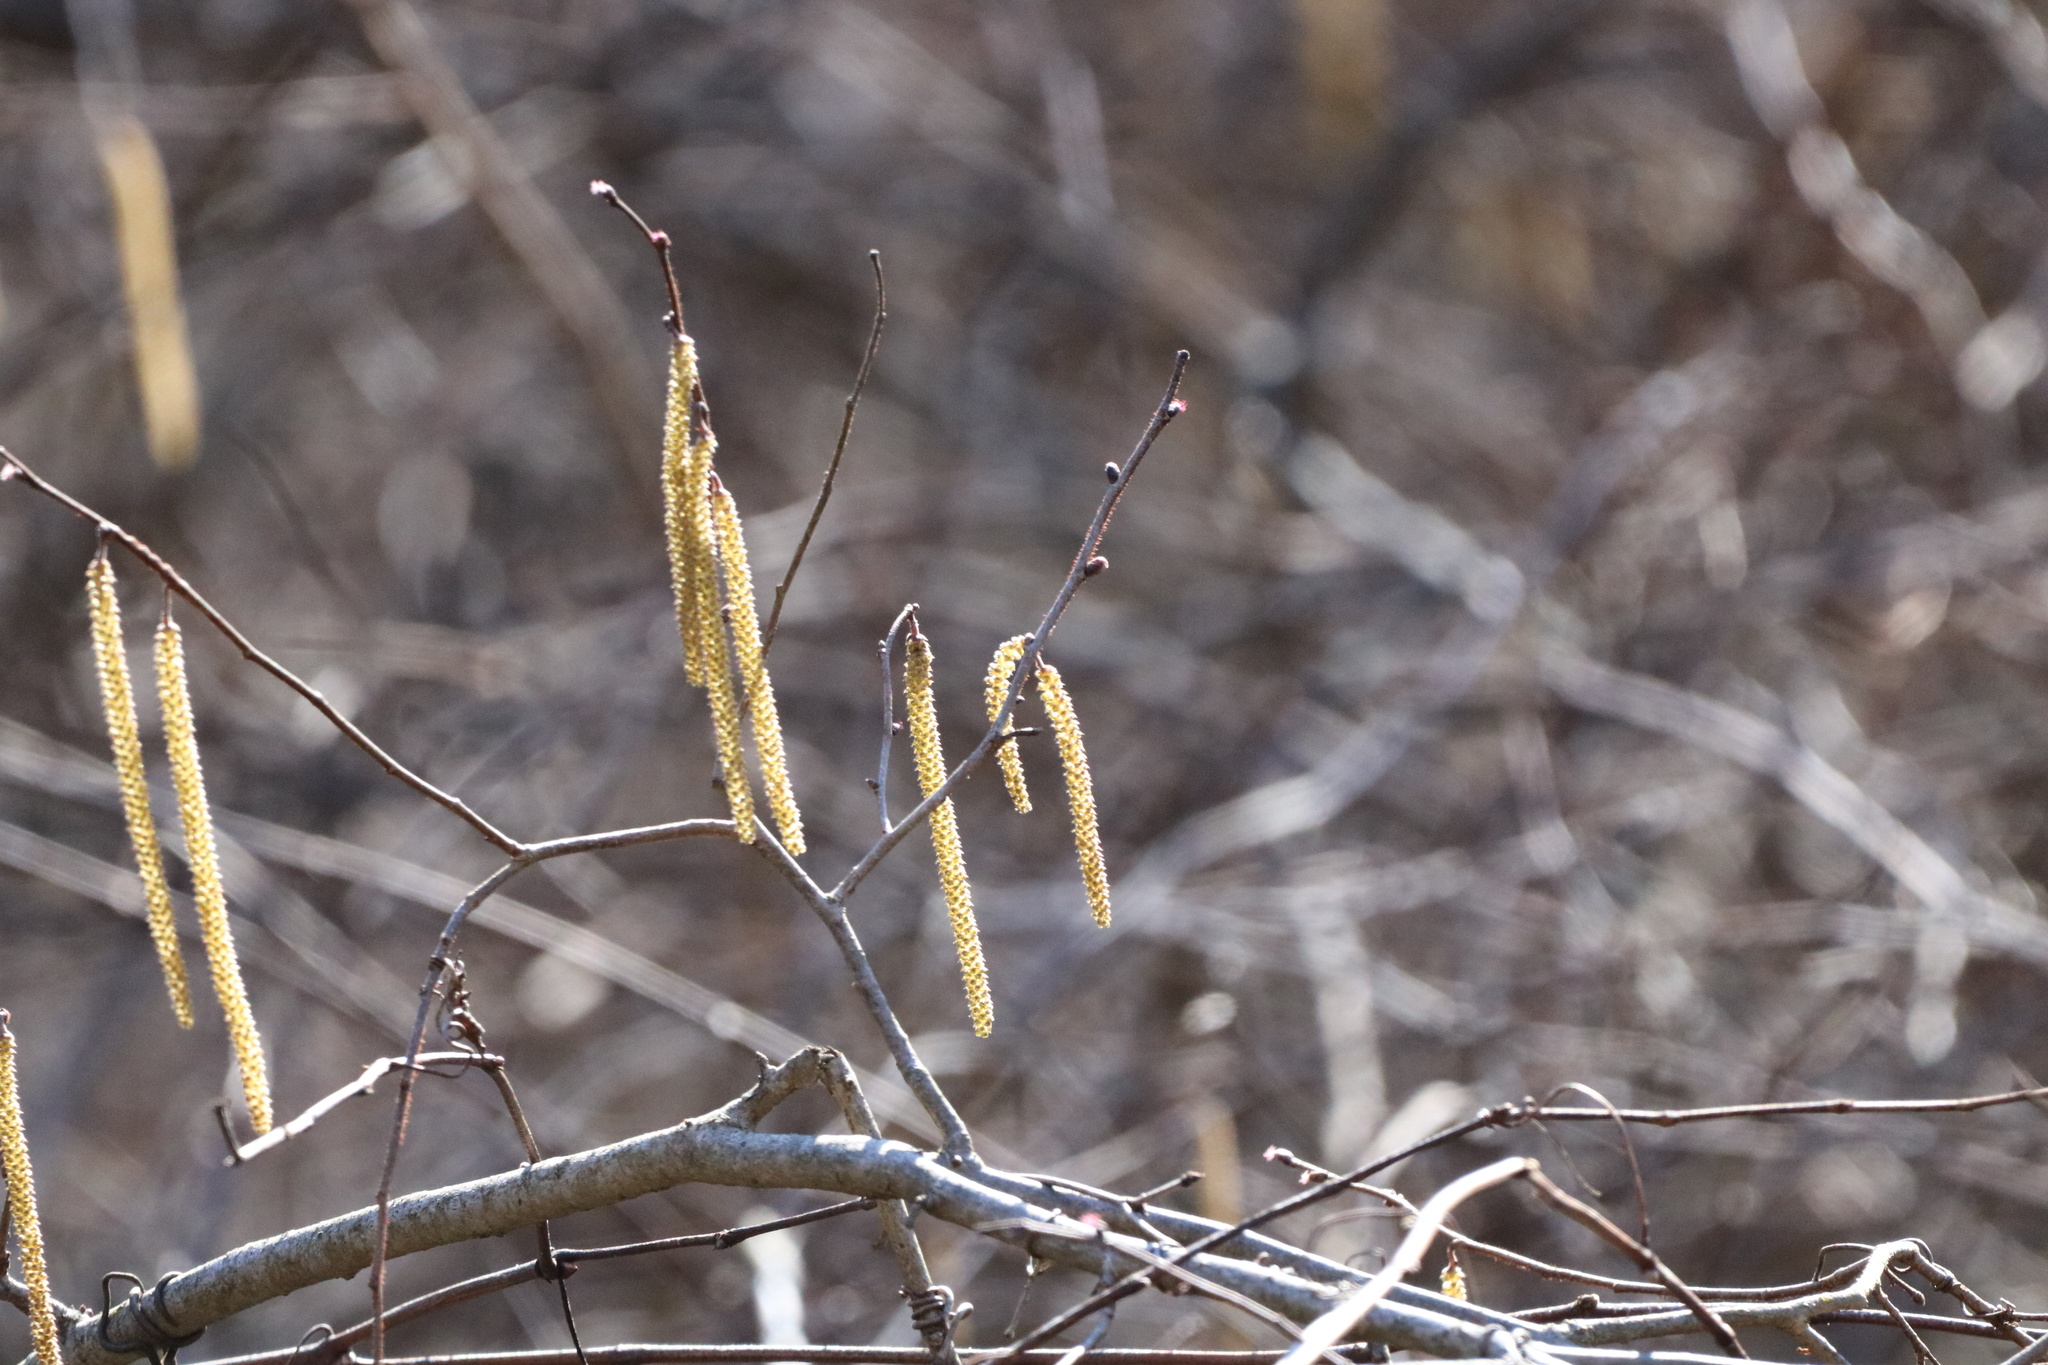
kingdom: Plantae
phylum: Tracheophyta
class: Magnoliopsida
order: Fagales
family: Betulaceae
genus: Corylus
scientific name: Corylus americana
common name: American hazel
